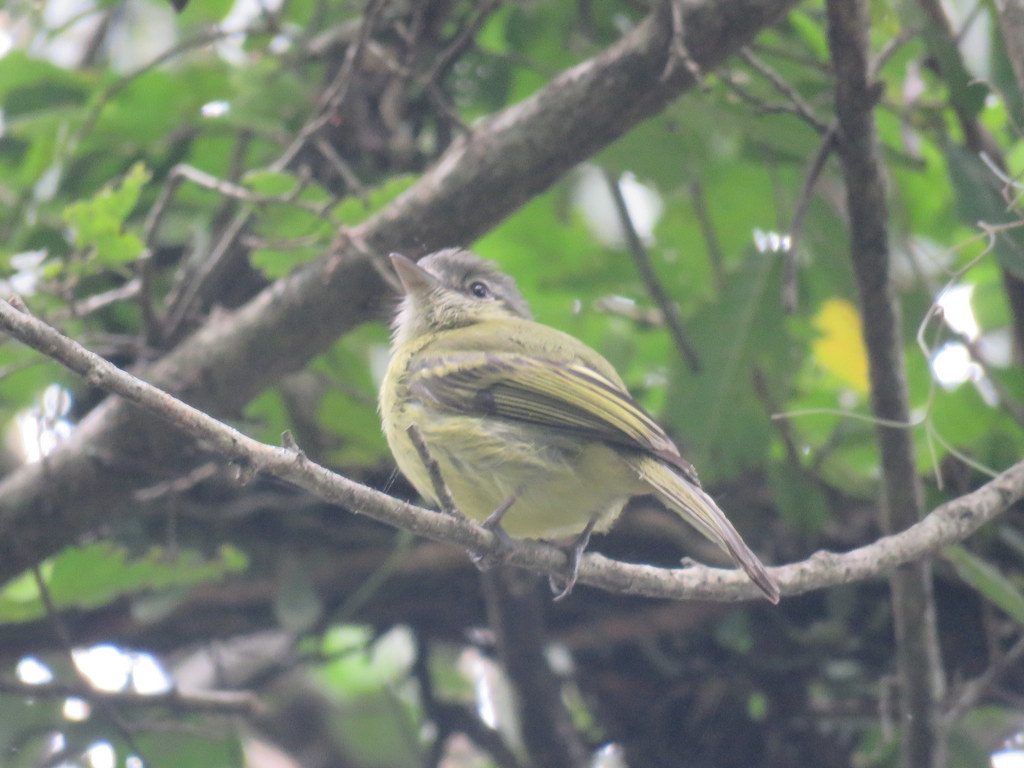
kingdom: Animalia
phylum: Chordata
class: Aves
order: Passeriformes
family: Tyrannidae
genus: Tolmomyias
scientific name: Tolmomyias sulphurescens
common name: Yellow-olive flycatcher
